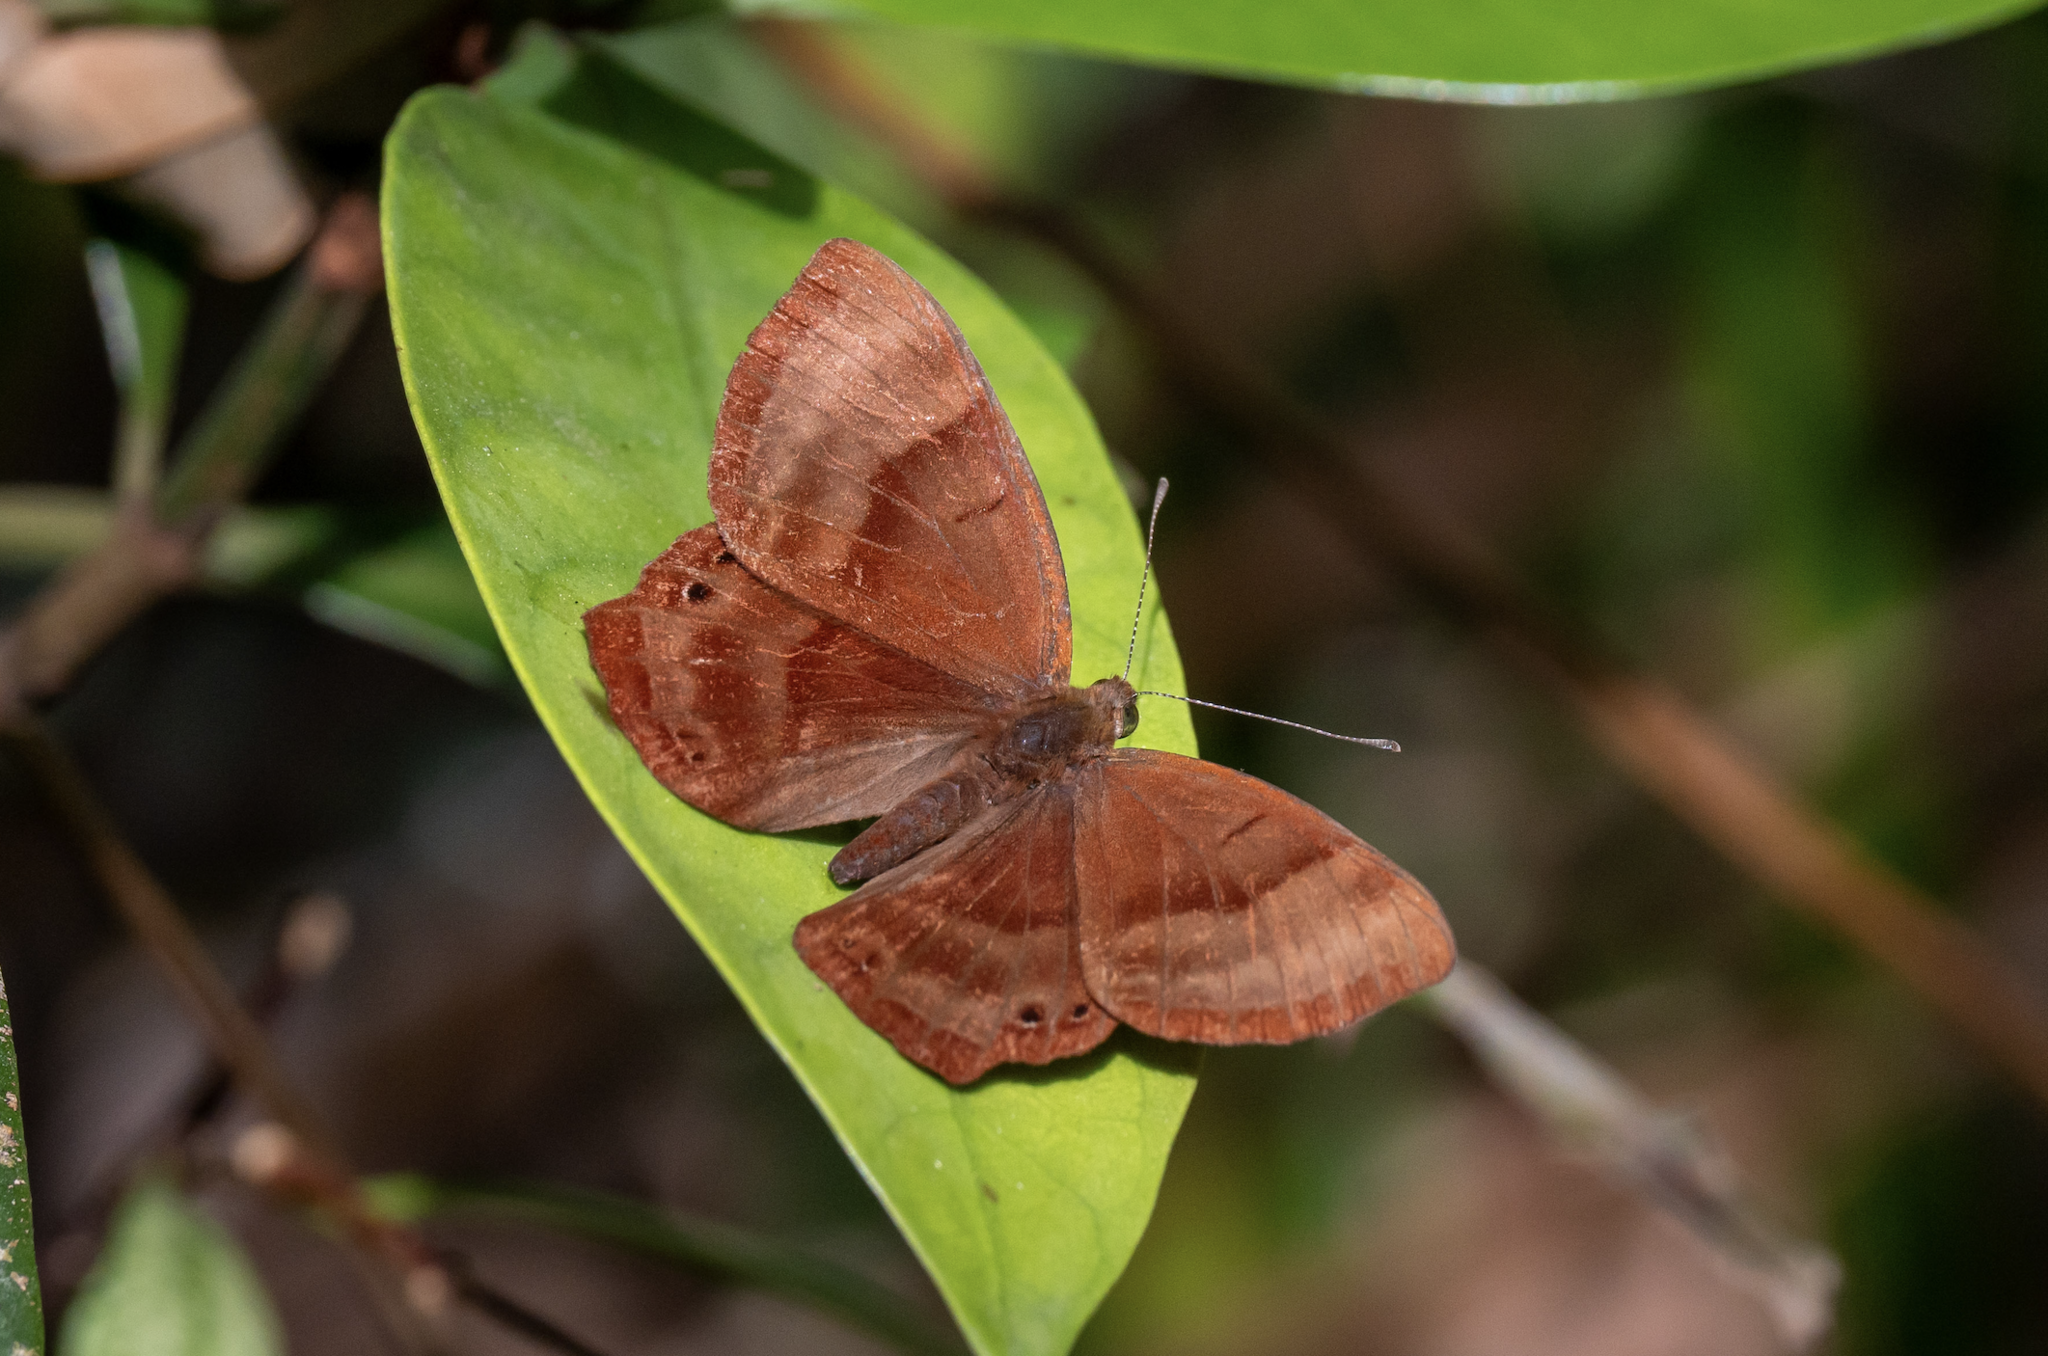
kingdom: Animalia
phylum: Arthropoda
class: Insecta
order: Lepidoptera
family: Lycaenidae
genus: Abisara
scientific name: Abisara echeria
